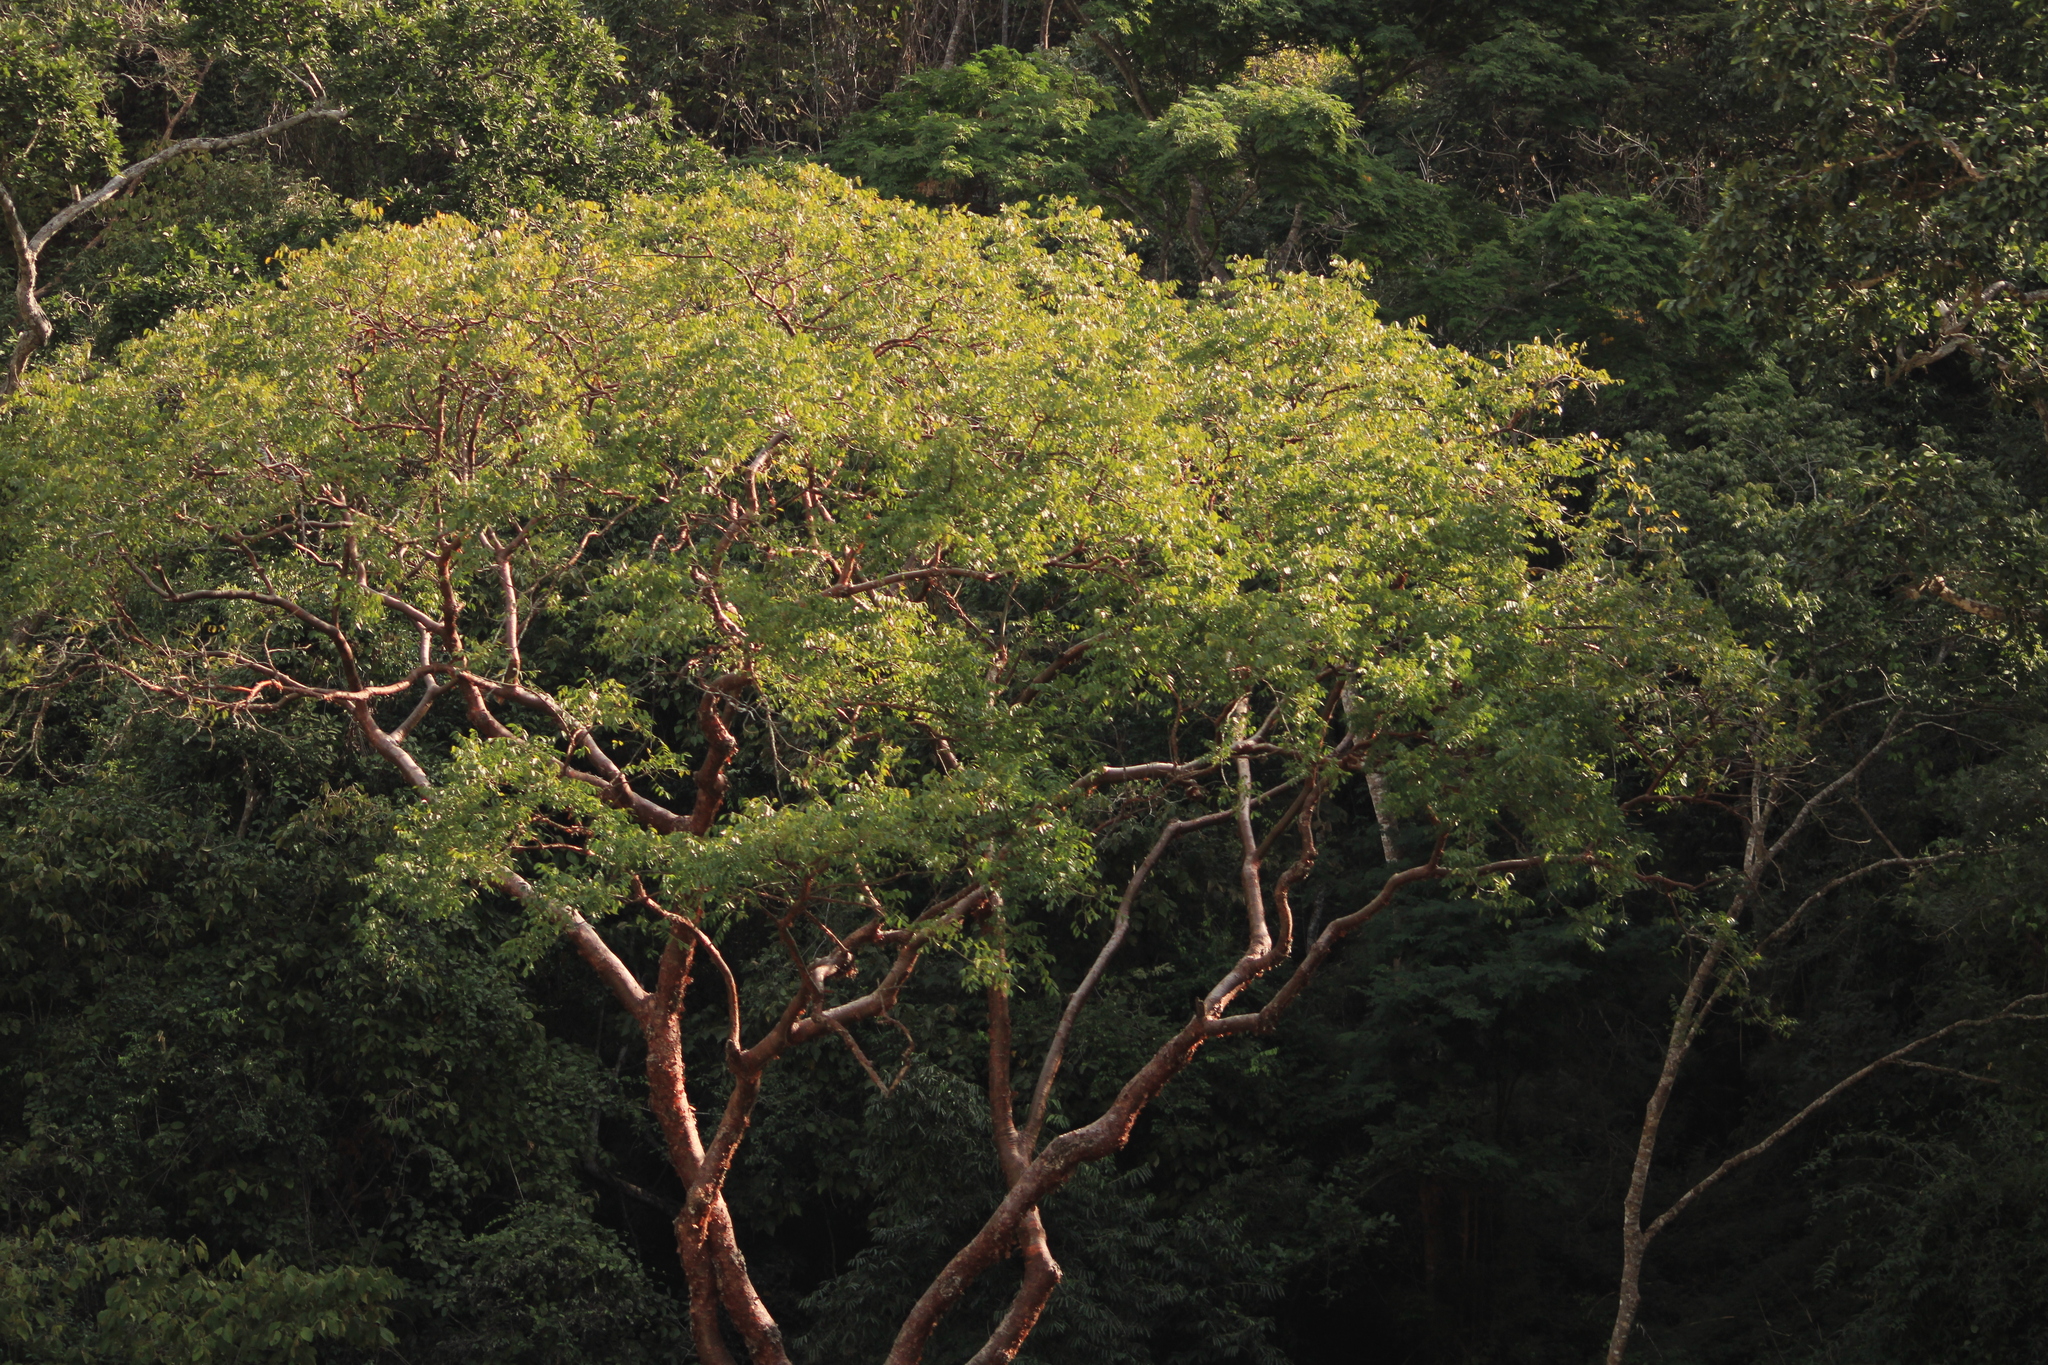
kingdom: Plantae
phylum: Tracheophyta
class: Magnoliopsida
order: Sapindales
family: Burseraceae
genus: Bursera
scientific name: Bursera grandifolia
